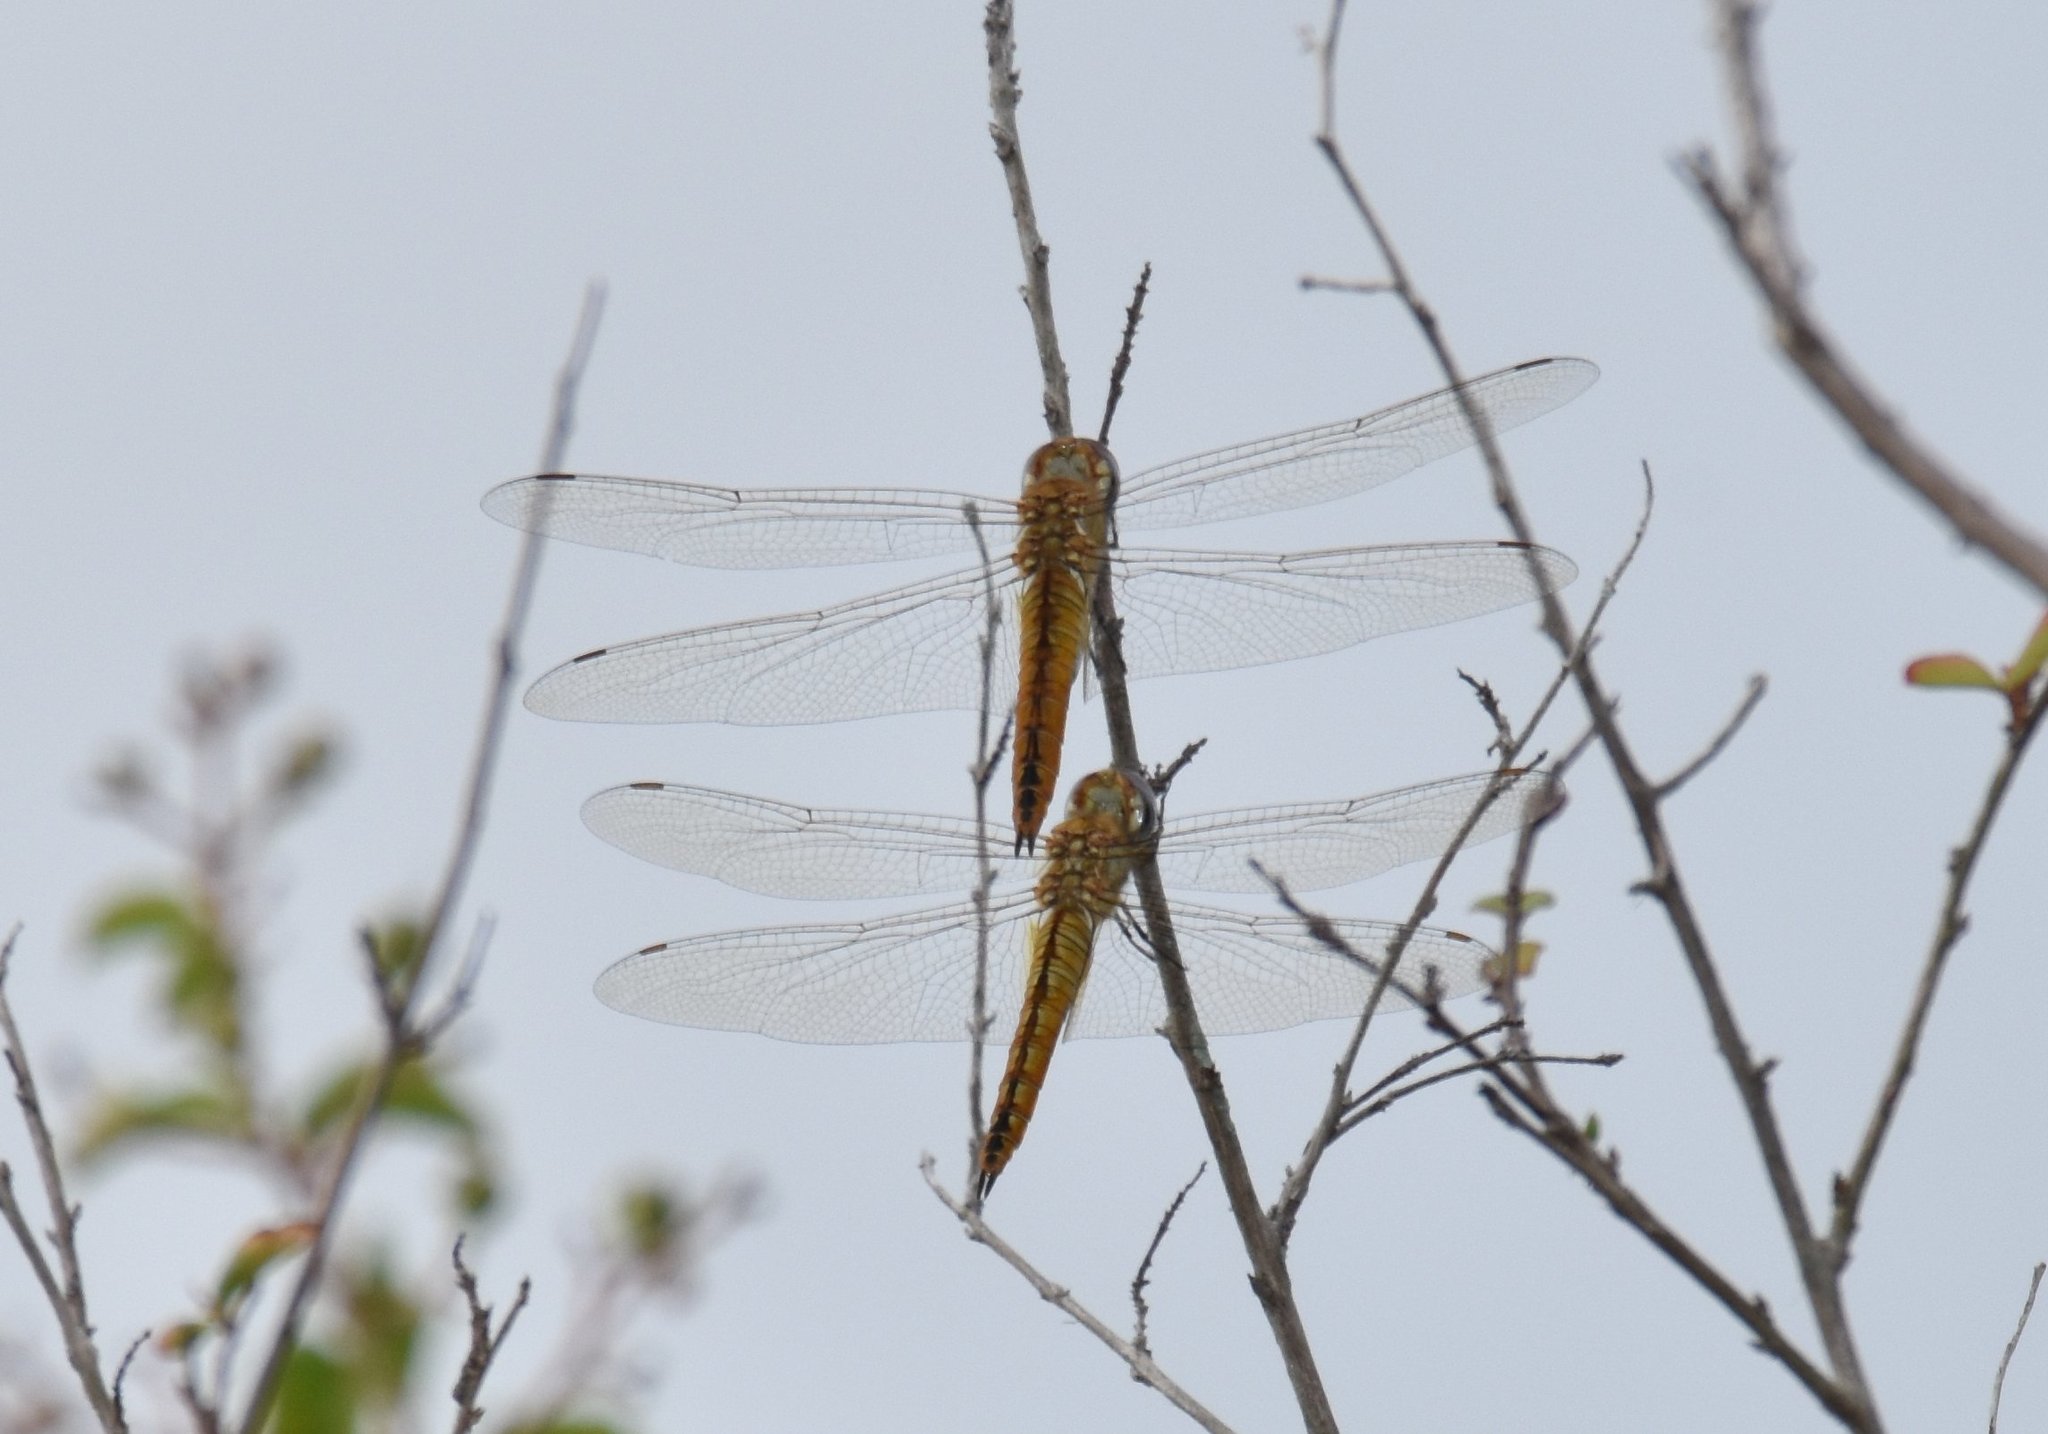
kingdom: Animalia
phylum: Arthropoda
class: Insecta
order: Odonata
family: Libellulidae
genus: Pantala
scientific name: Pantala flavescens
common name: Wandering glider
